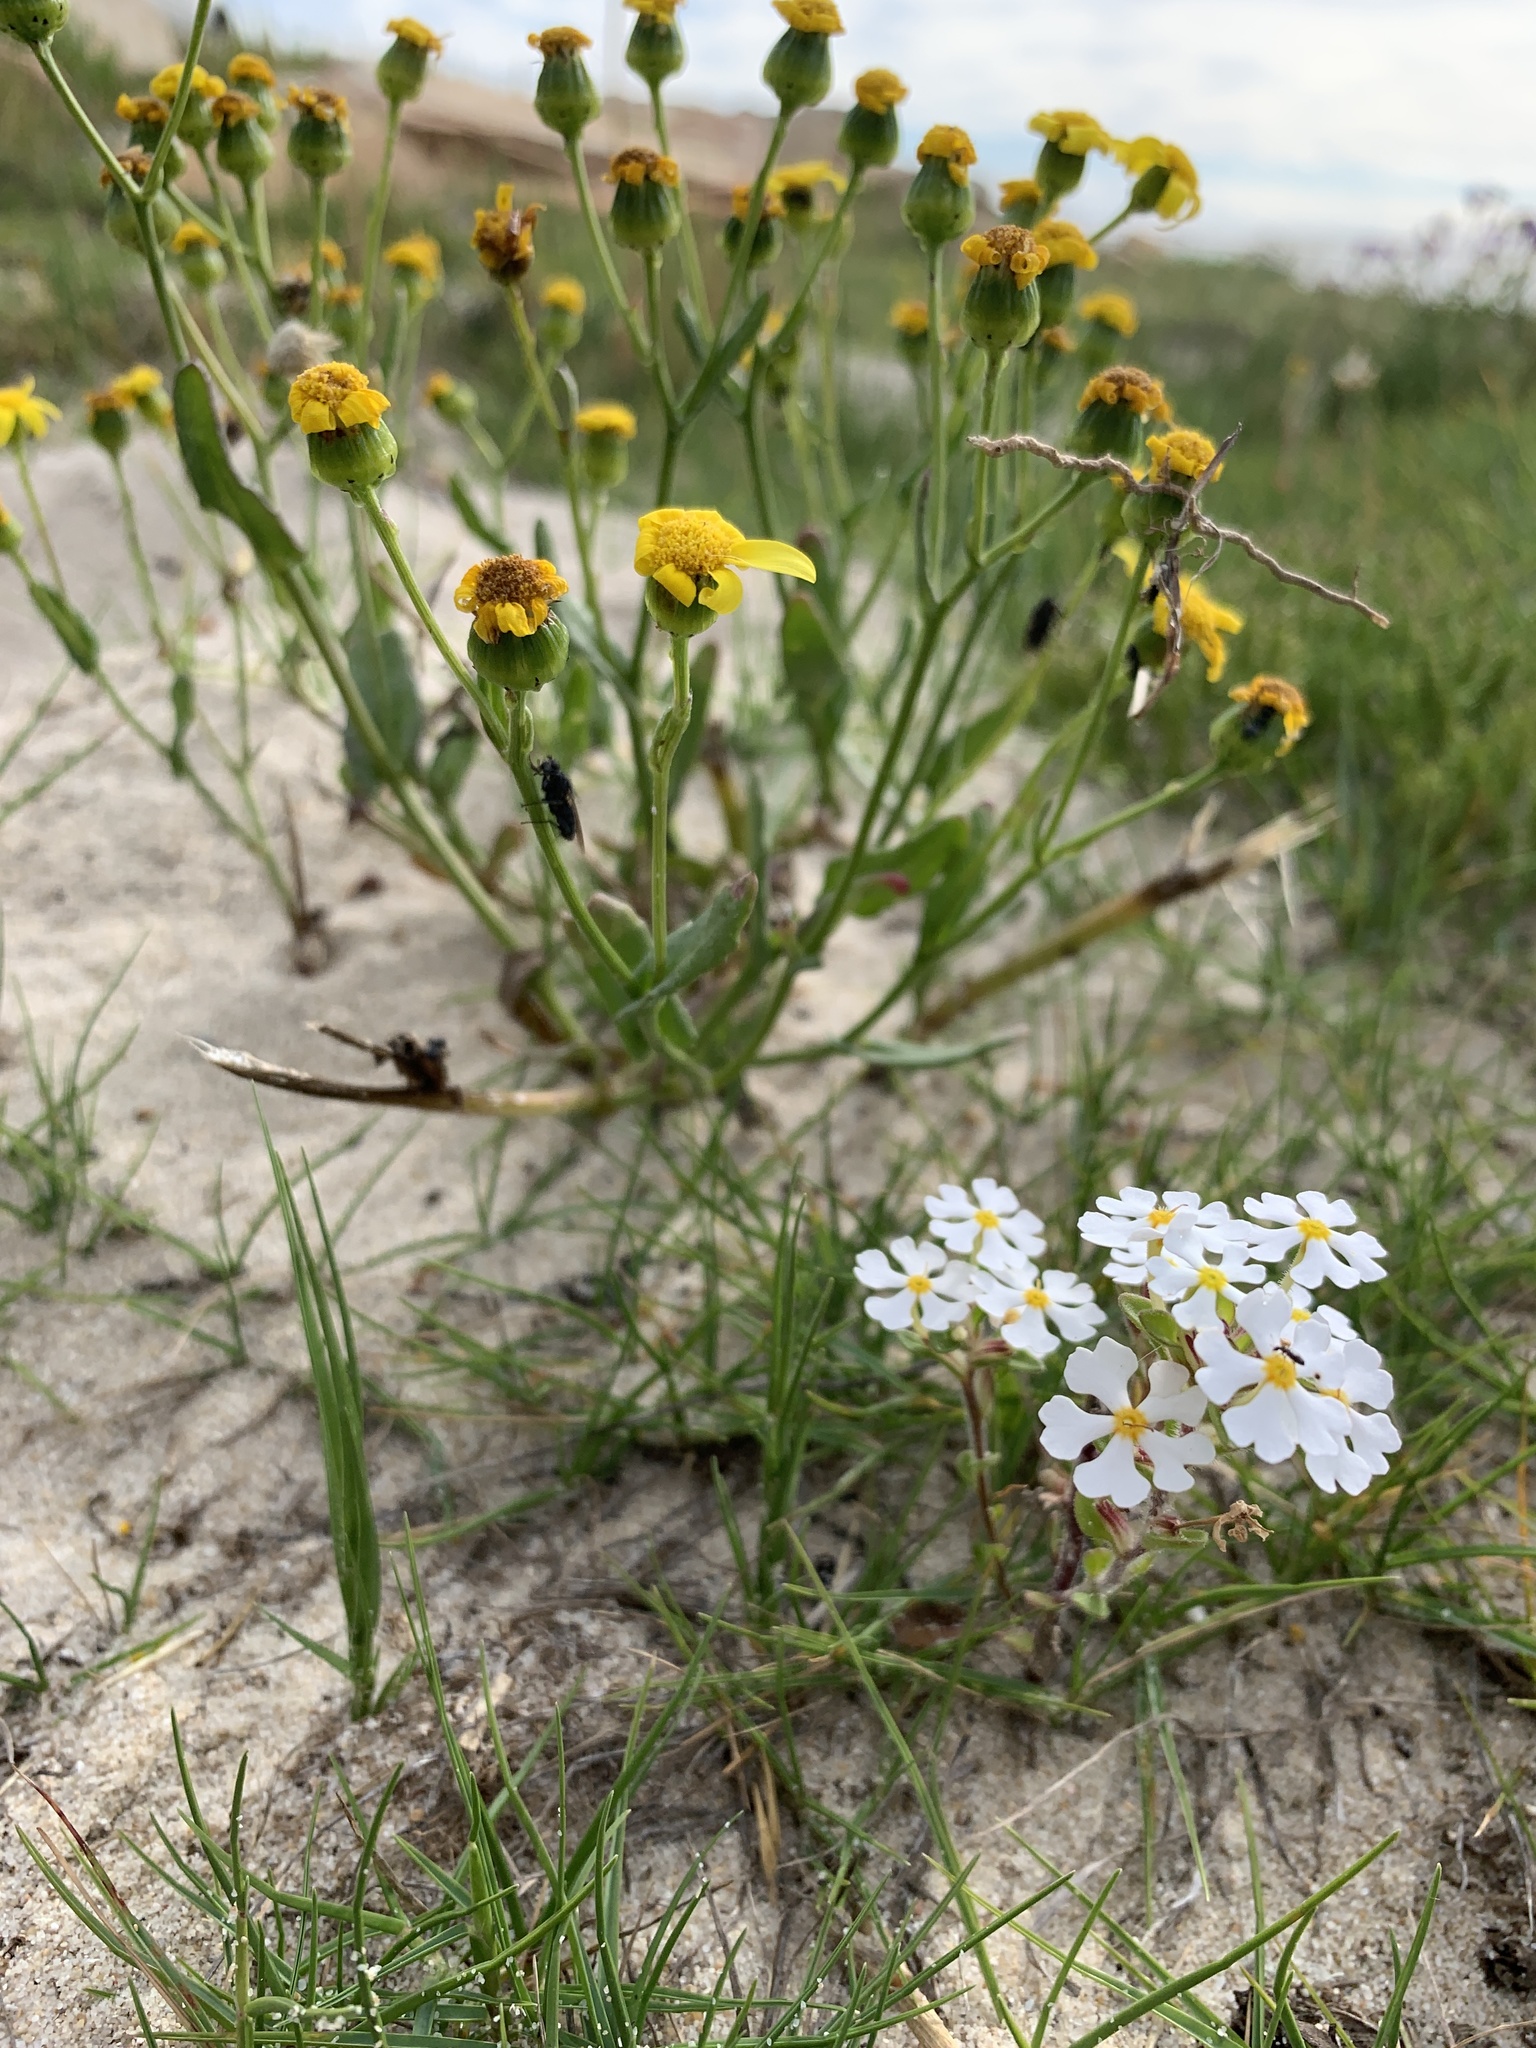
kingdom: Plantae
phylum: Tracheophyta
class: Magnoliopsida
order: Lamiales
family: Scrophulariaceae
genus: Zaluzianskya
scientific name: Zaluzianskya villosa
